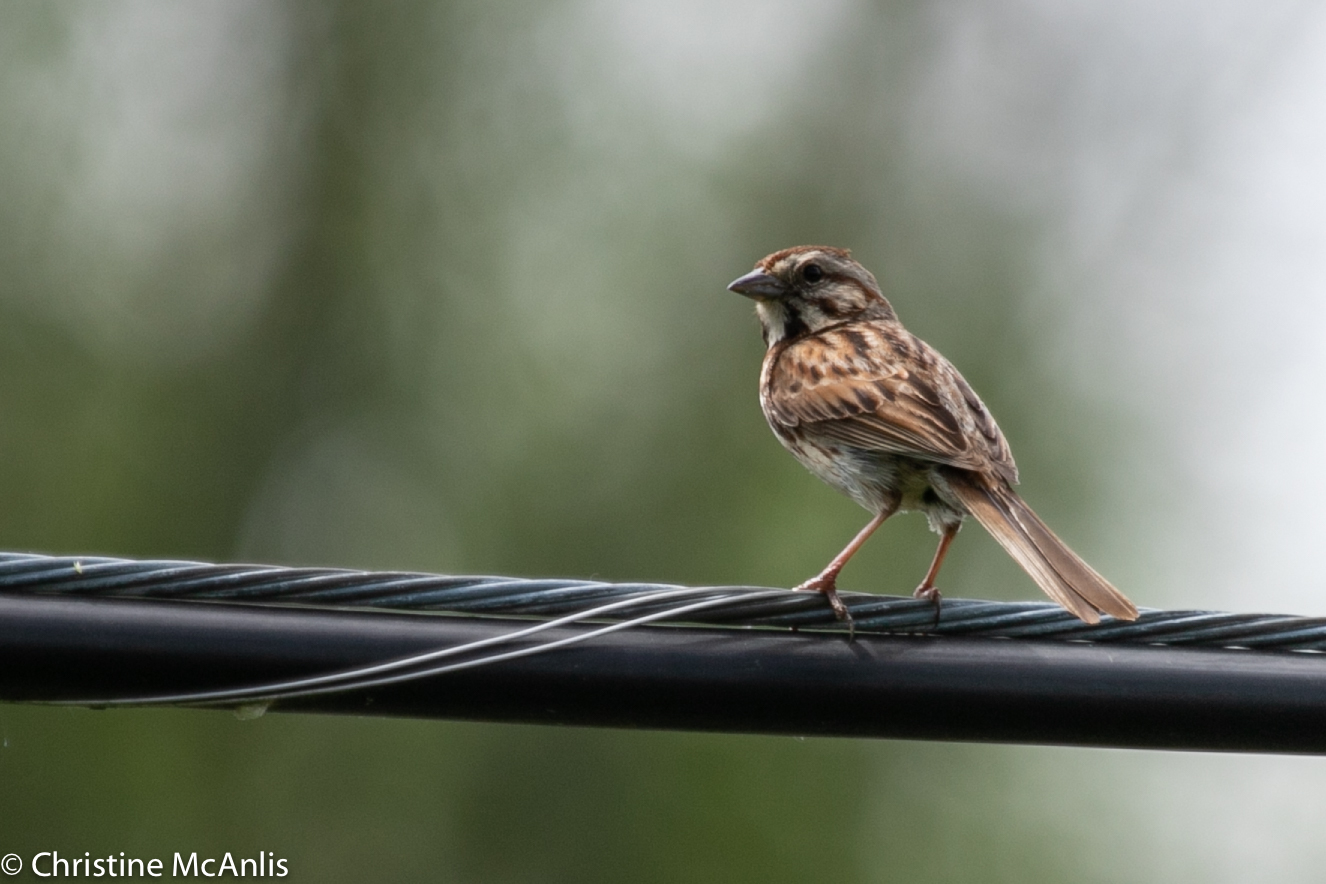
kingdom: Animalia
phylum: Chordata
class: Aves
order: Passeriformes
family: Passerellidae
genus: Melospiza
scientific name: Melospiza melodia
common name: Song sparrow
